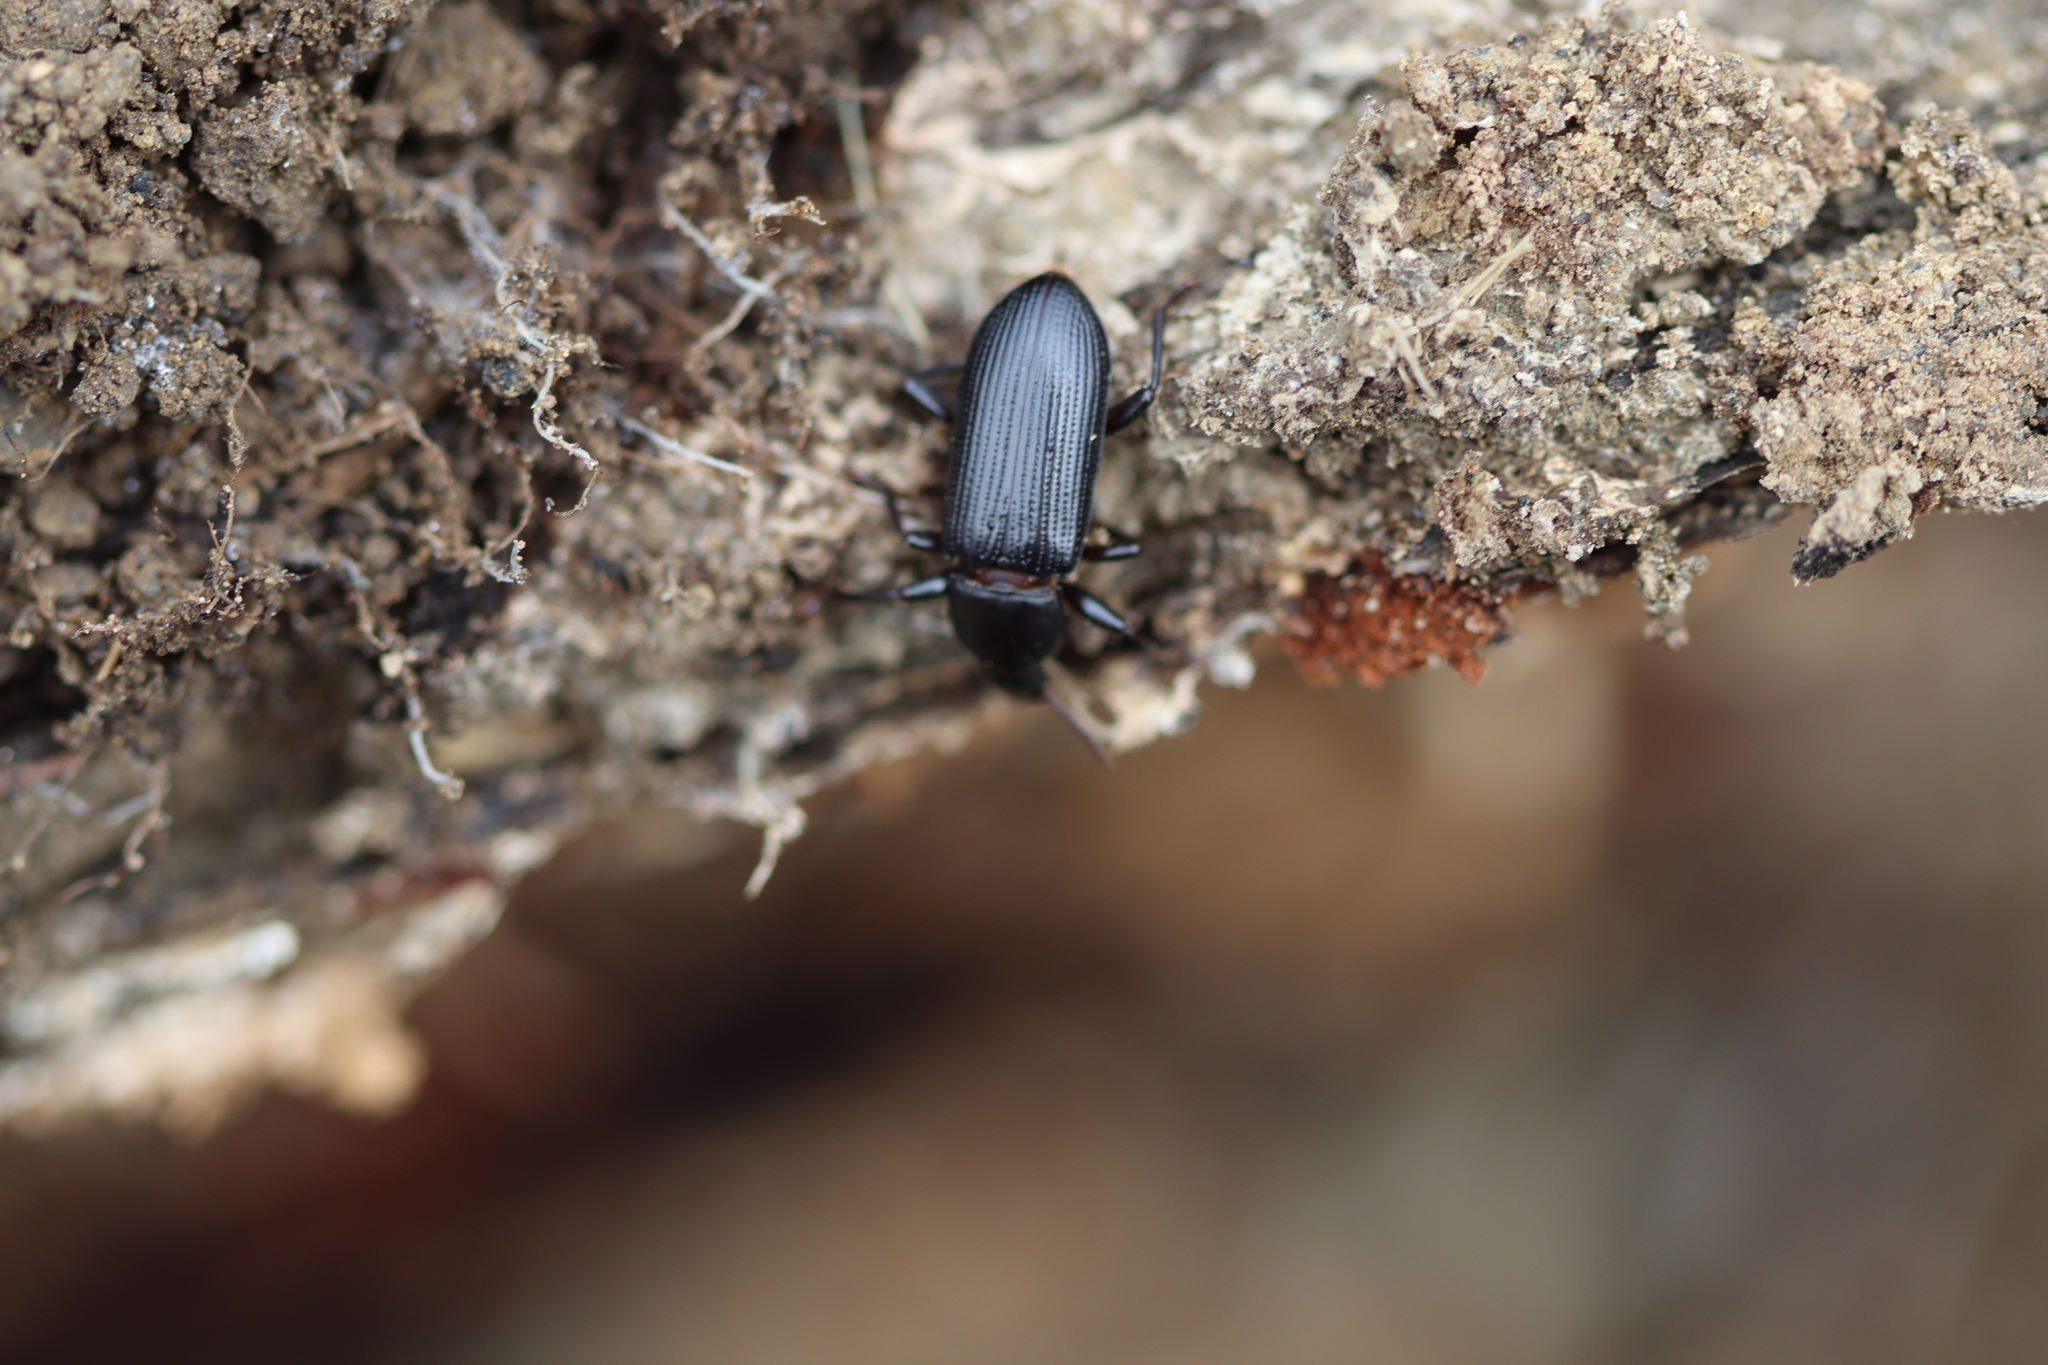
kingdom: Animalia
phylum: Arthropoda
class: Insecta
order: Coleoptera
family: Tenebrionidae
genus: Menephilus
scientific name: Menephilus cylindricus
